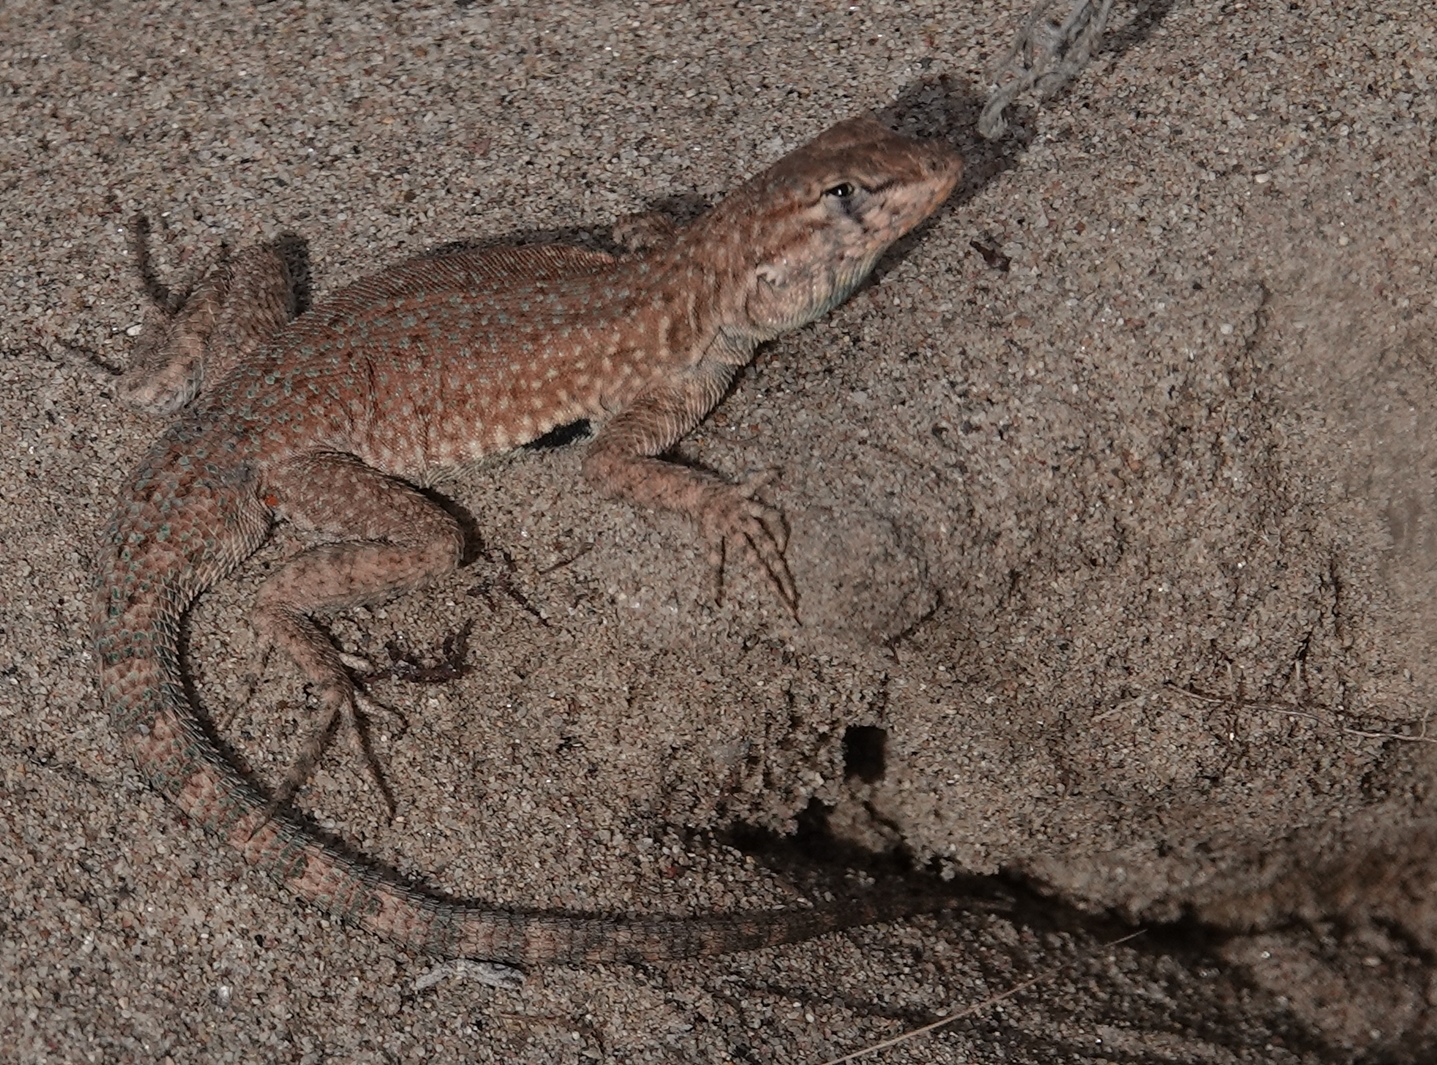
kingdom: Animalia
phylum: Chordata
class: Squamata
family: Phrynosomatidae
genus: Uta
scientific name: Uta stansburiana
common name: Side-blotched lizard
